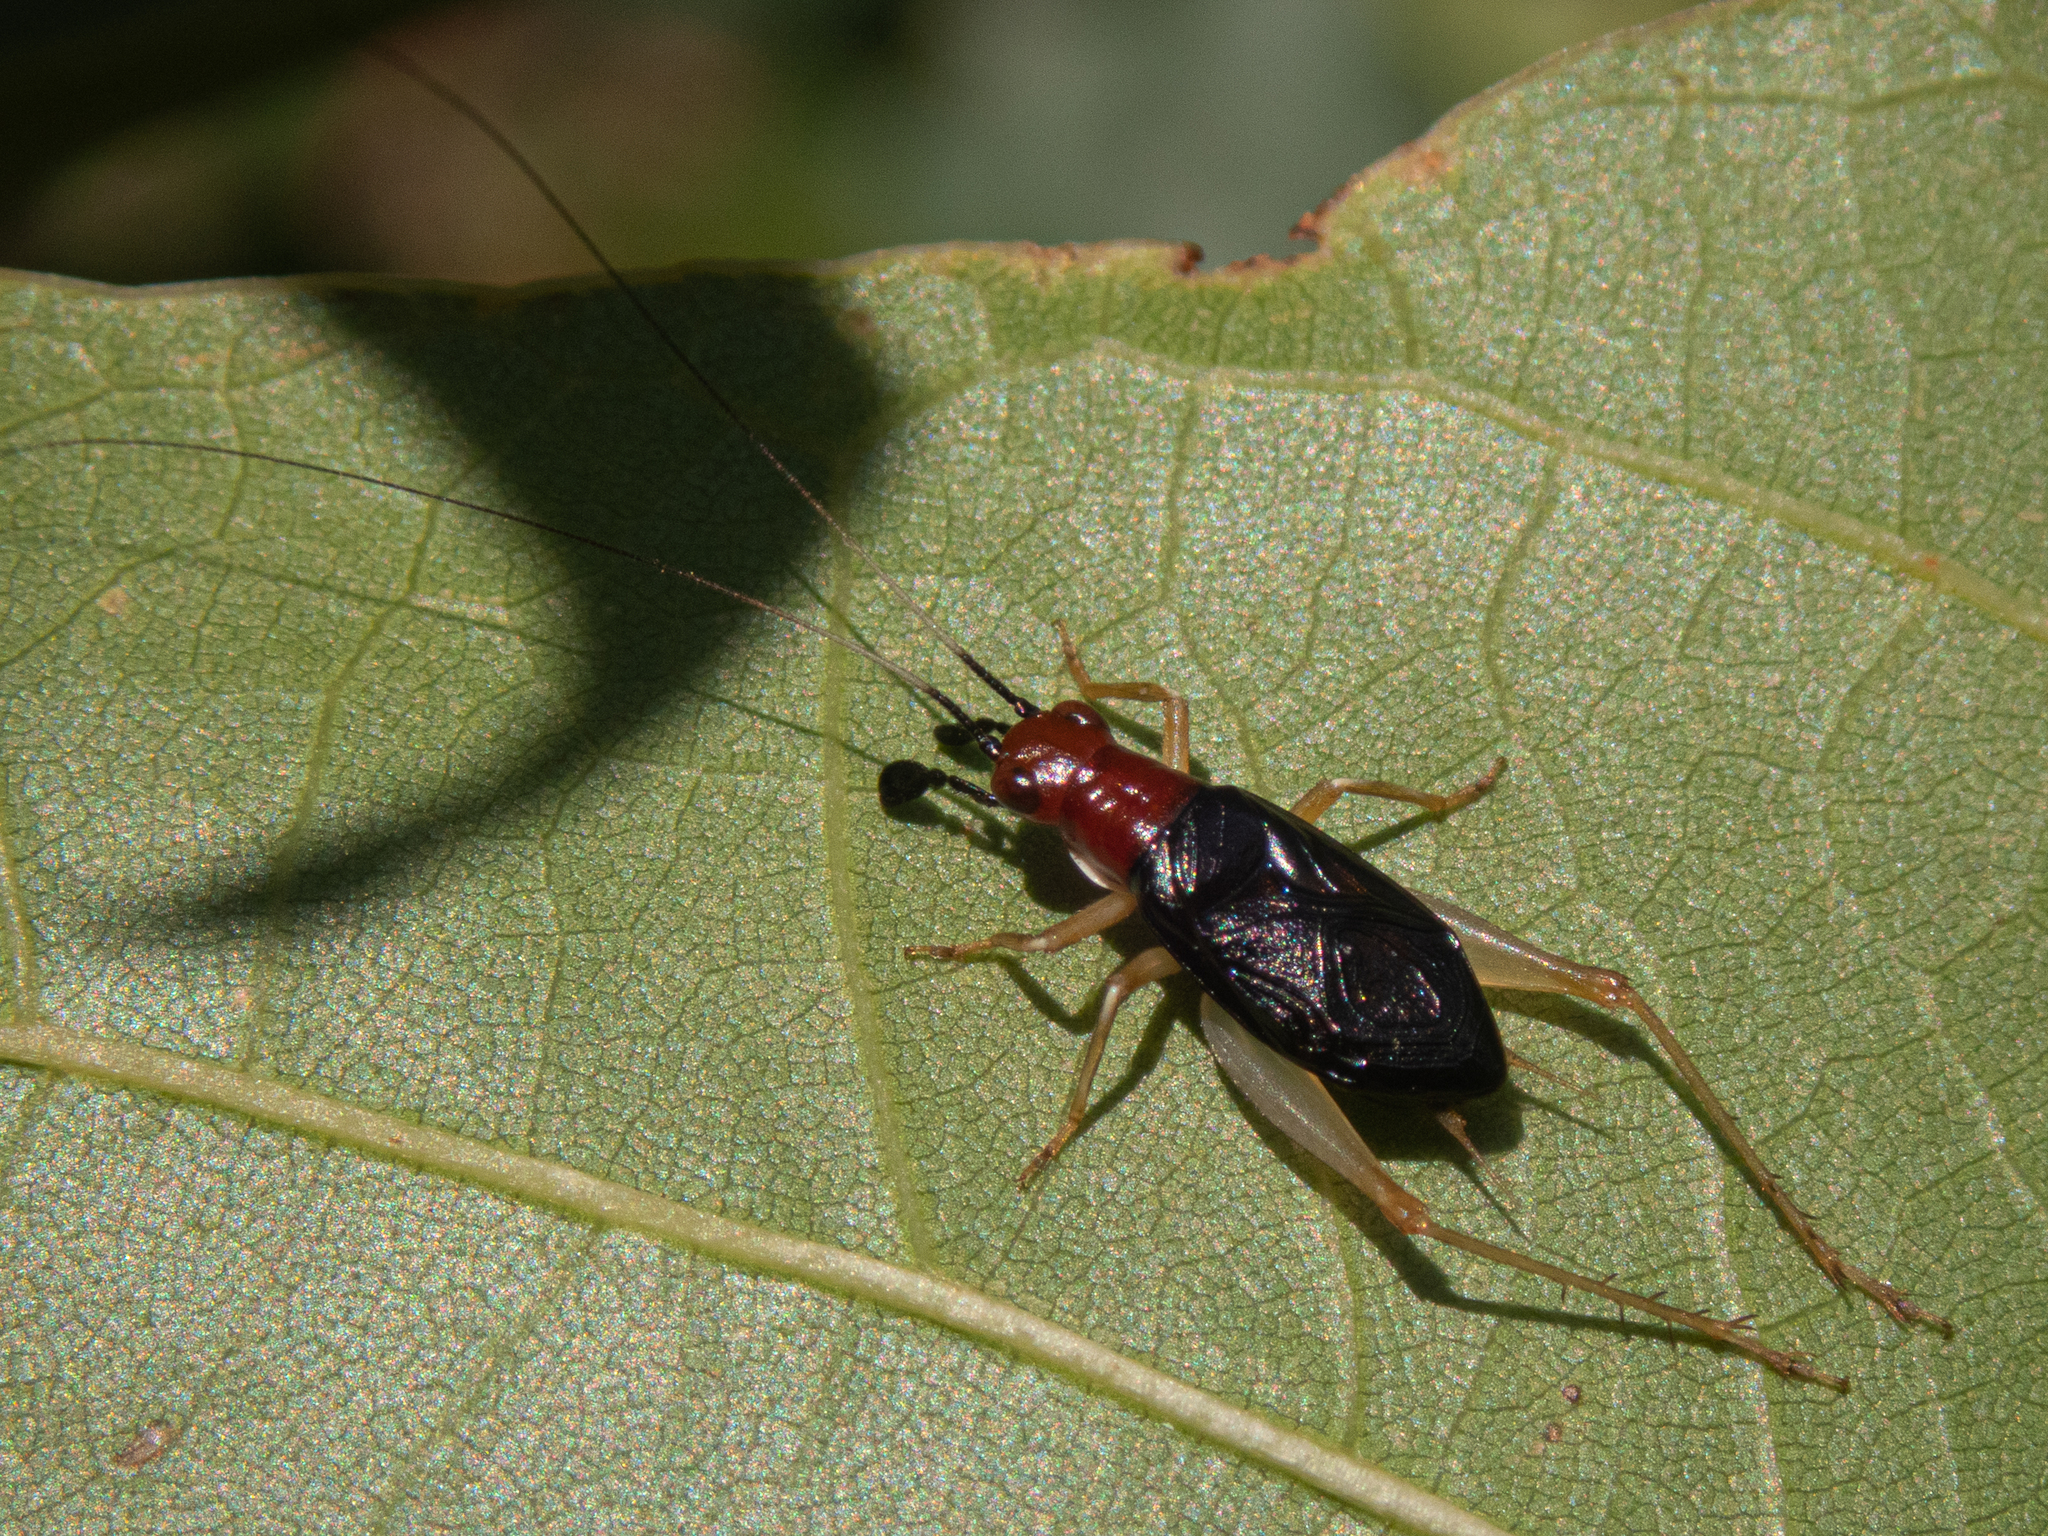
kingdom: Animalia
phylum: Arthropoda
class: Insecta
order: Orthoptera
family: Trigonidiidae
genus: Phyllopalpus
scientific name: Phyllopalpus pulchellus
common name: Handsome trig
